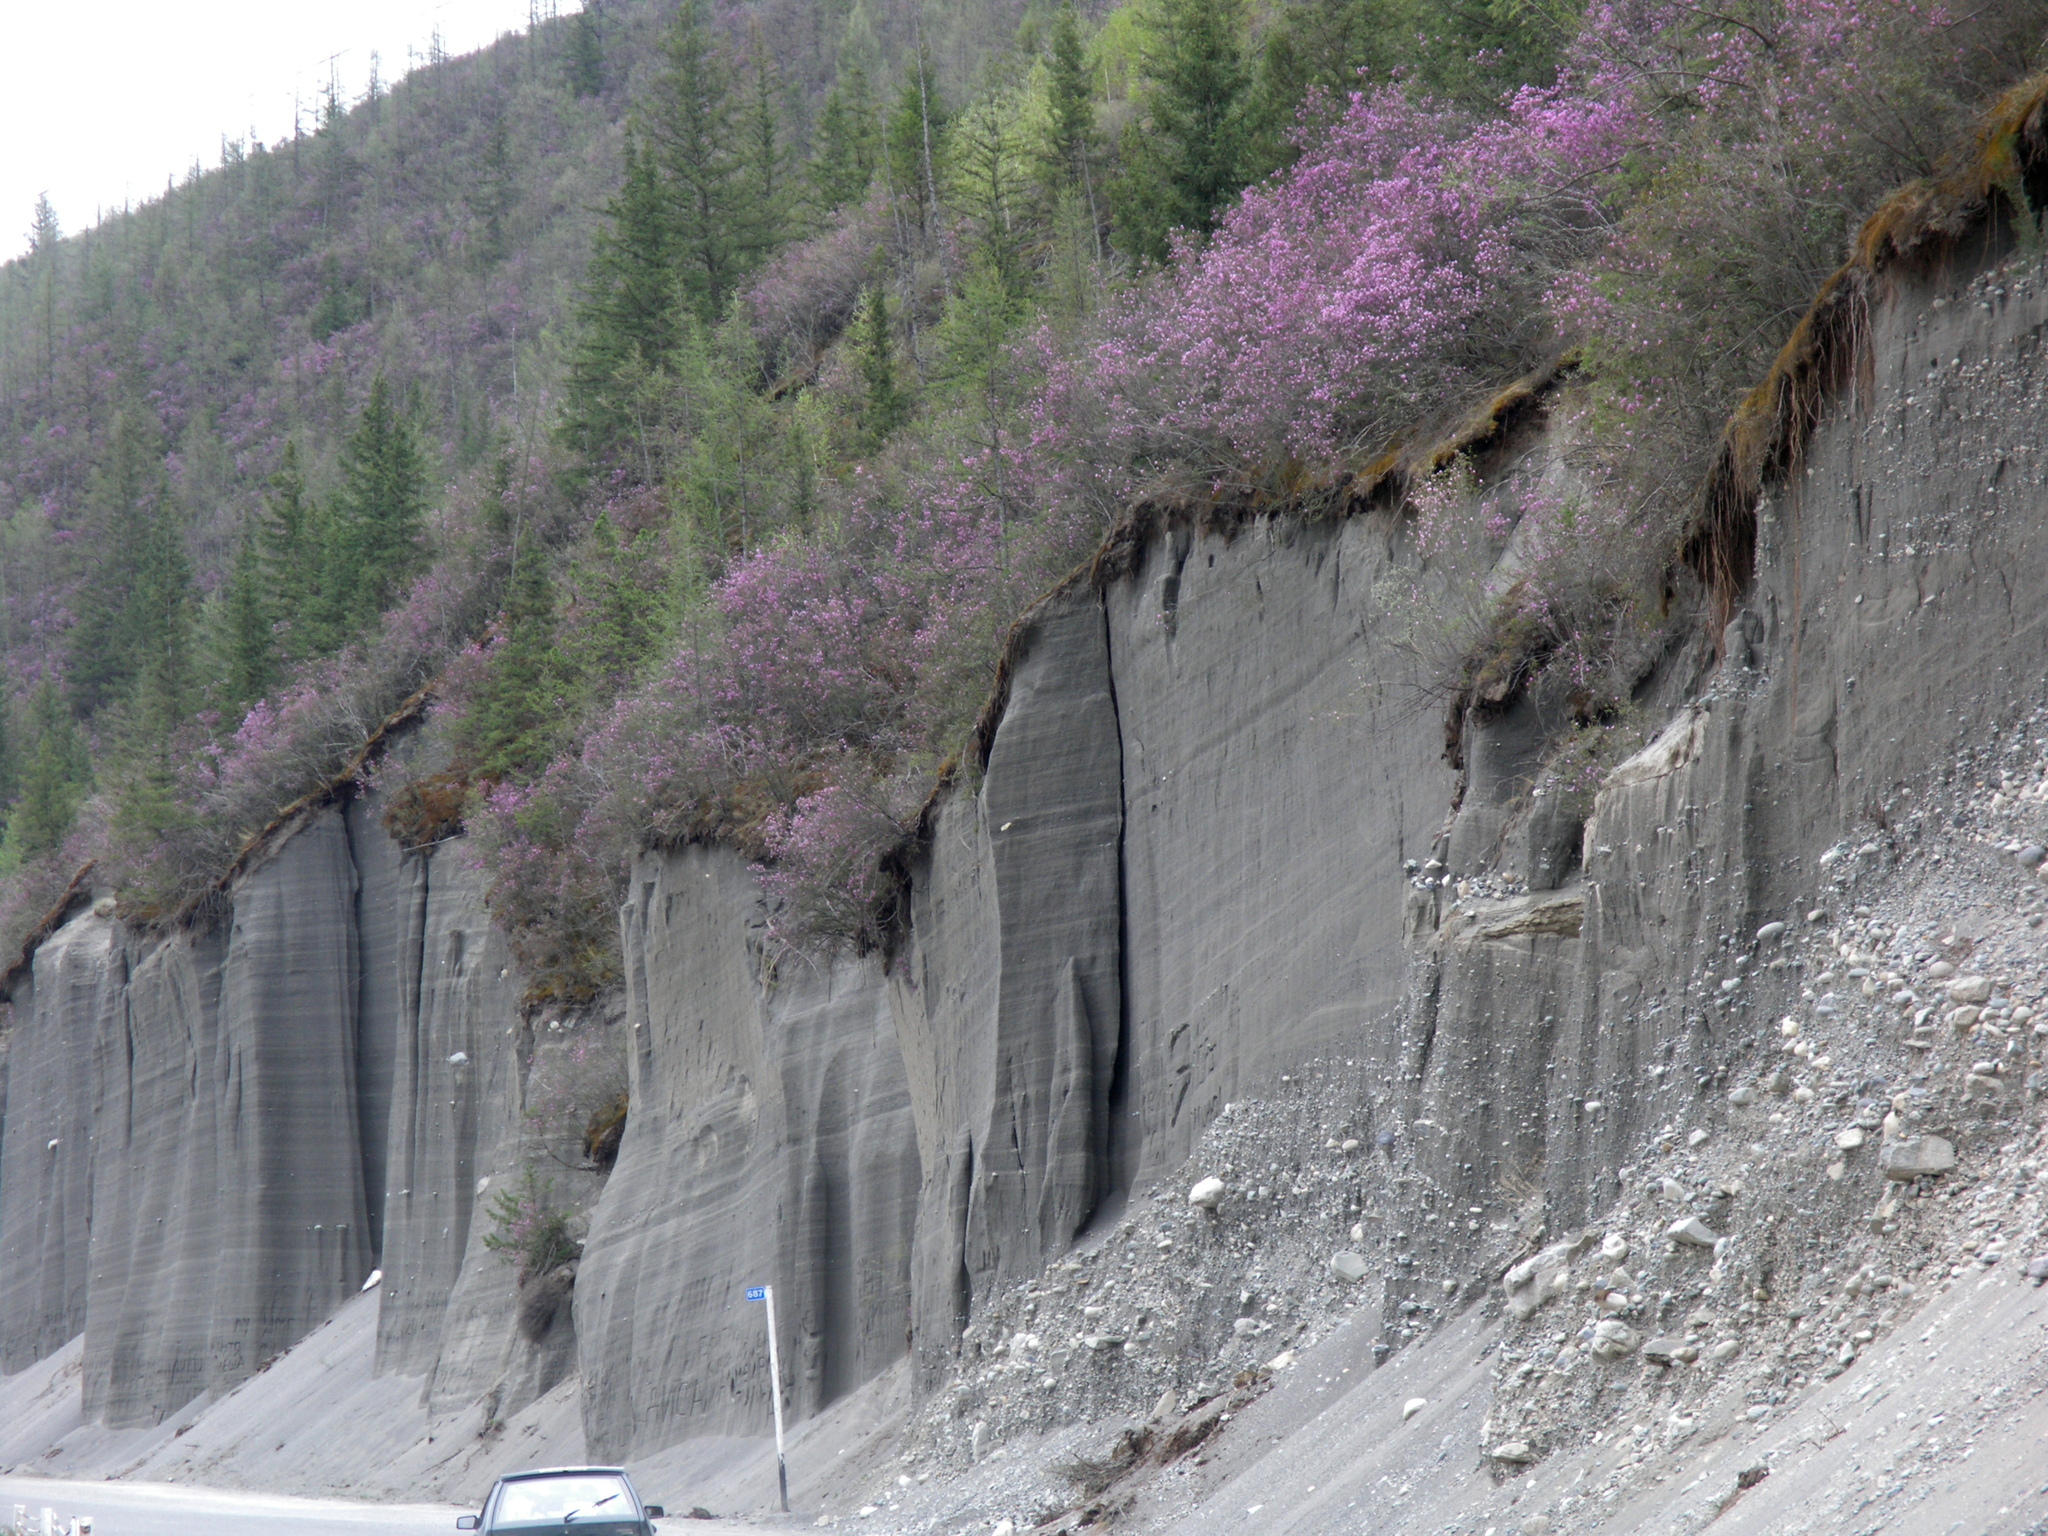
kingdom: Plantae
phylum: Tracheophyta
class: Magnoliopsida
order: Ericales
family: Ericaceae
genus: Rhododendron
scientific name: Rhododendron dauricum
